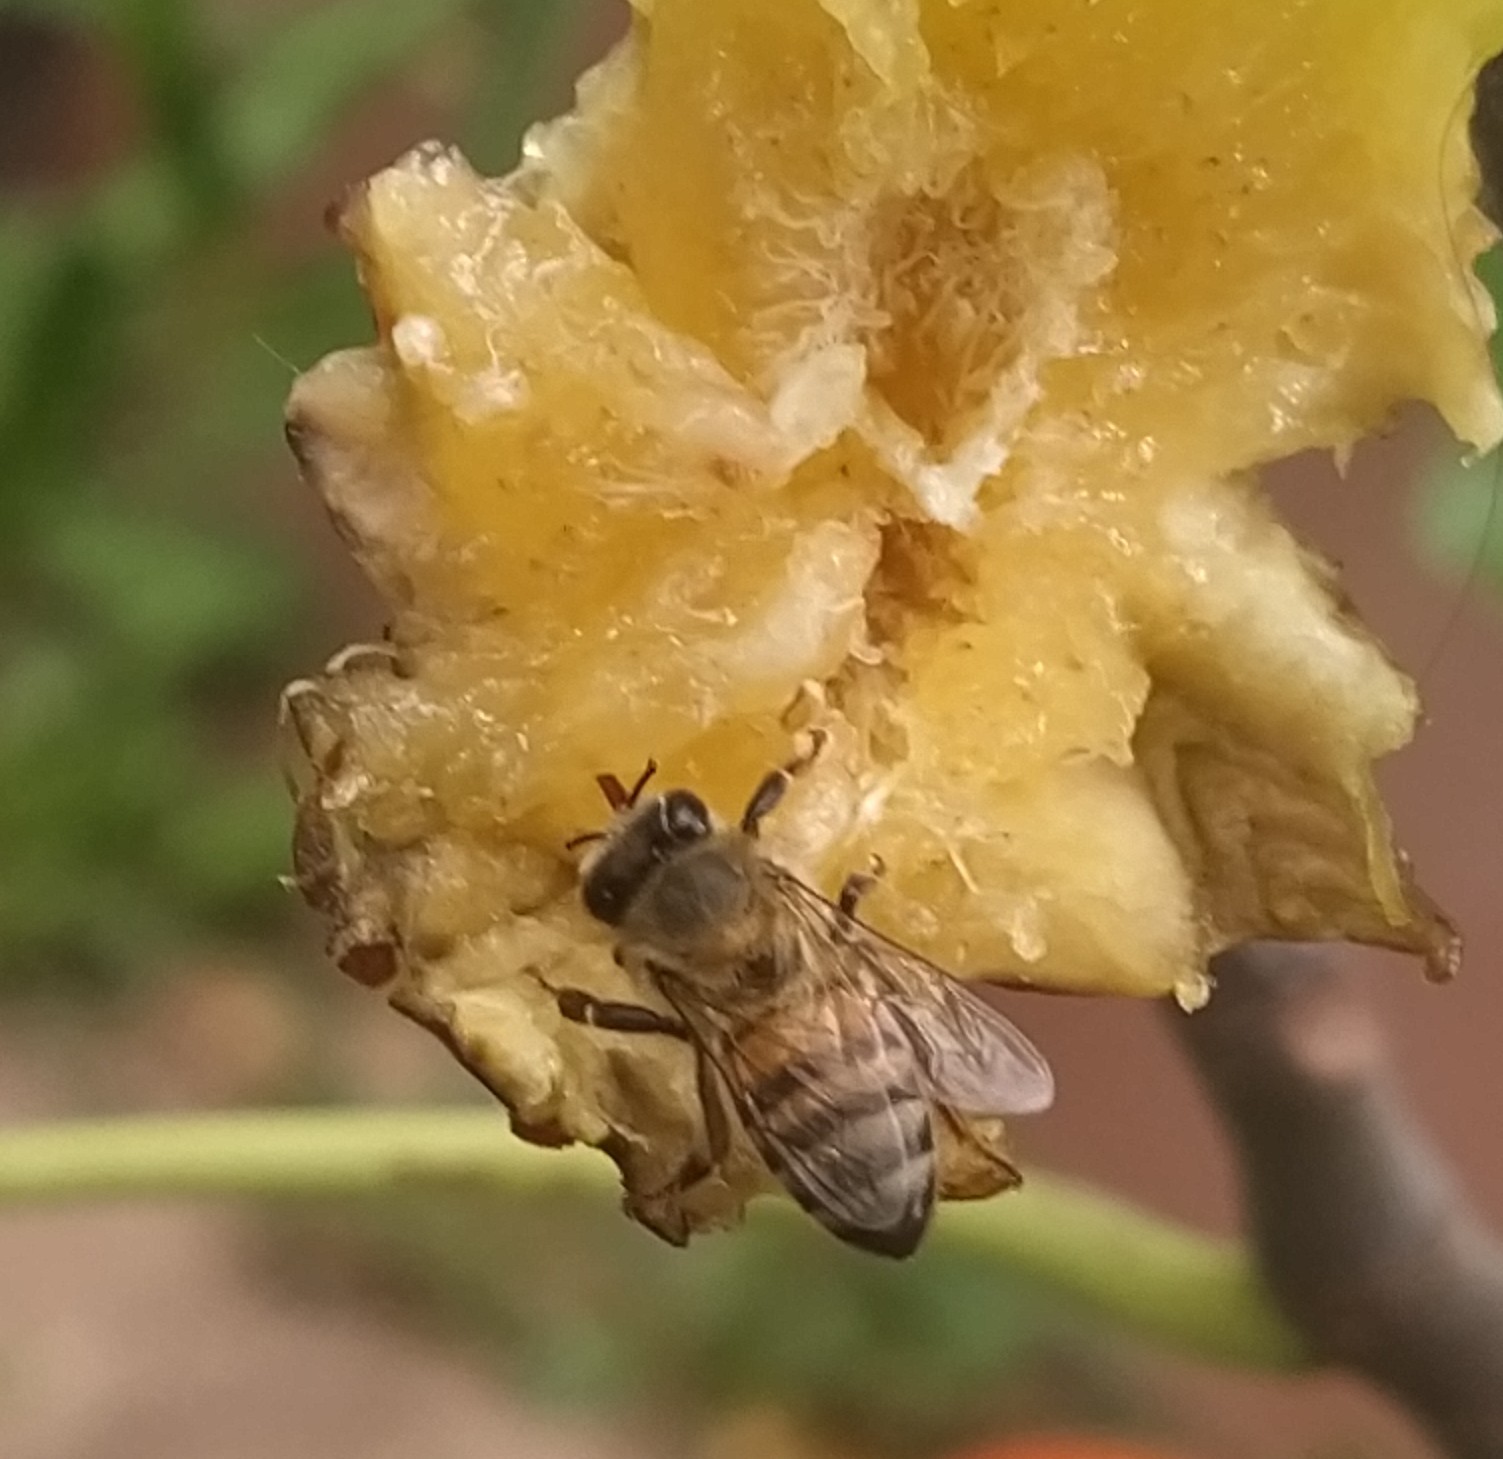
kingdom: Animalia
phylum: Arthropoda
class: Insecta
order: Hymenoptera
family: Apidae
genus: Apis
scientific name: Apis mellifera
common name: Honey bee
